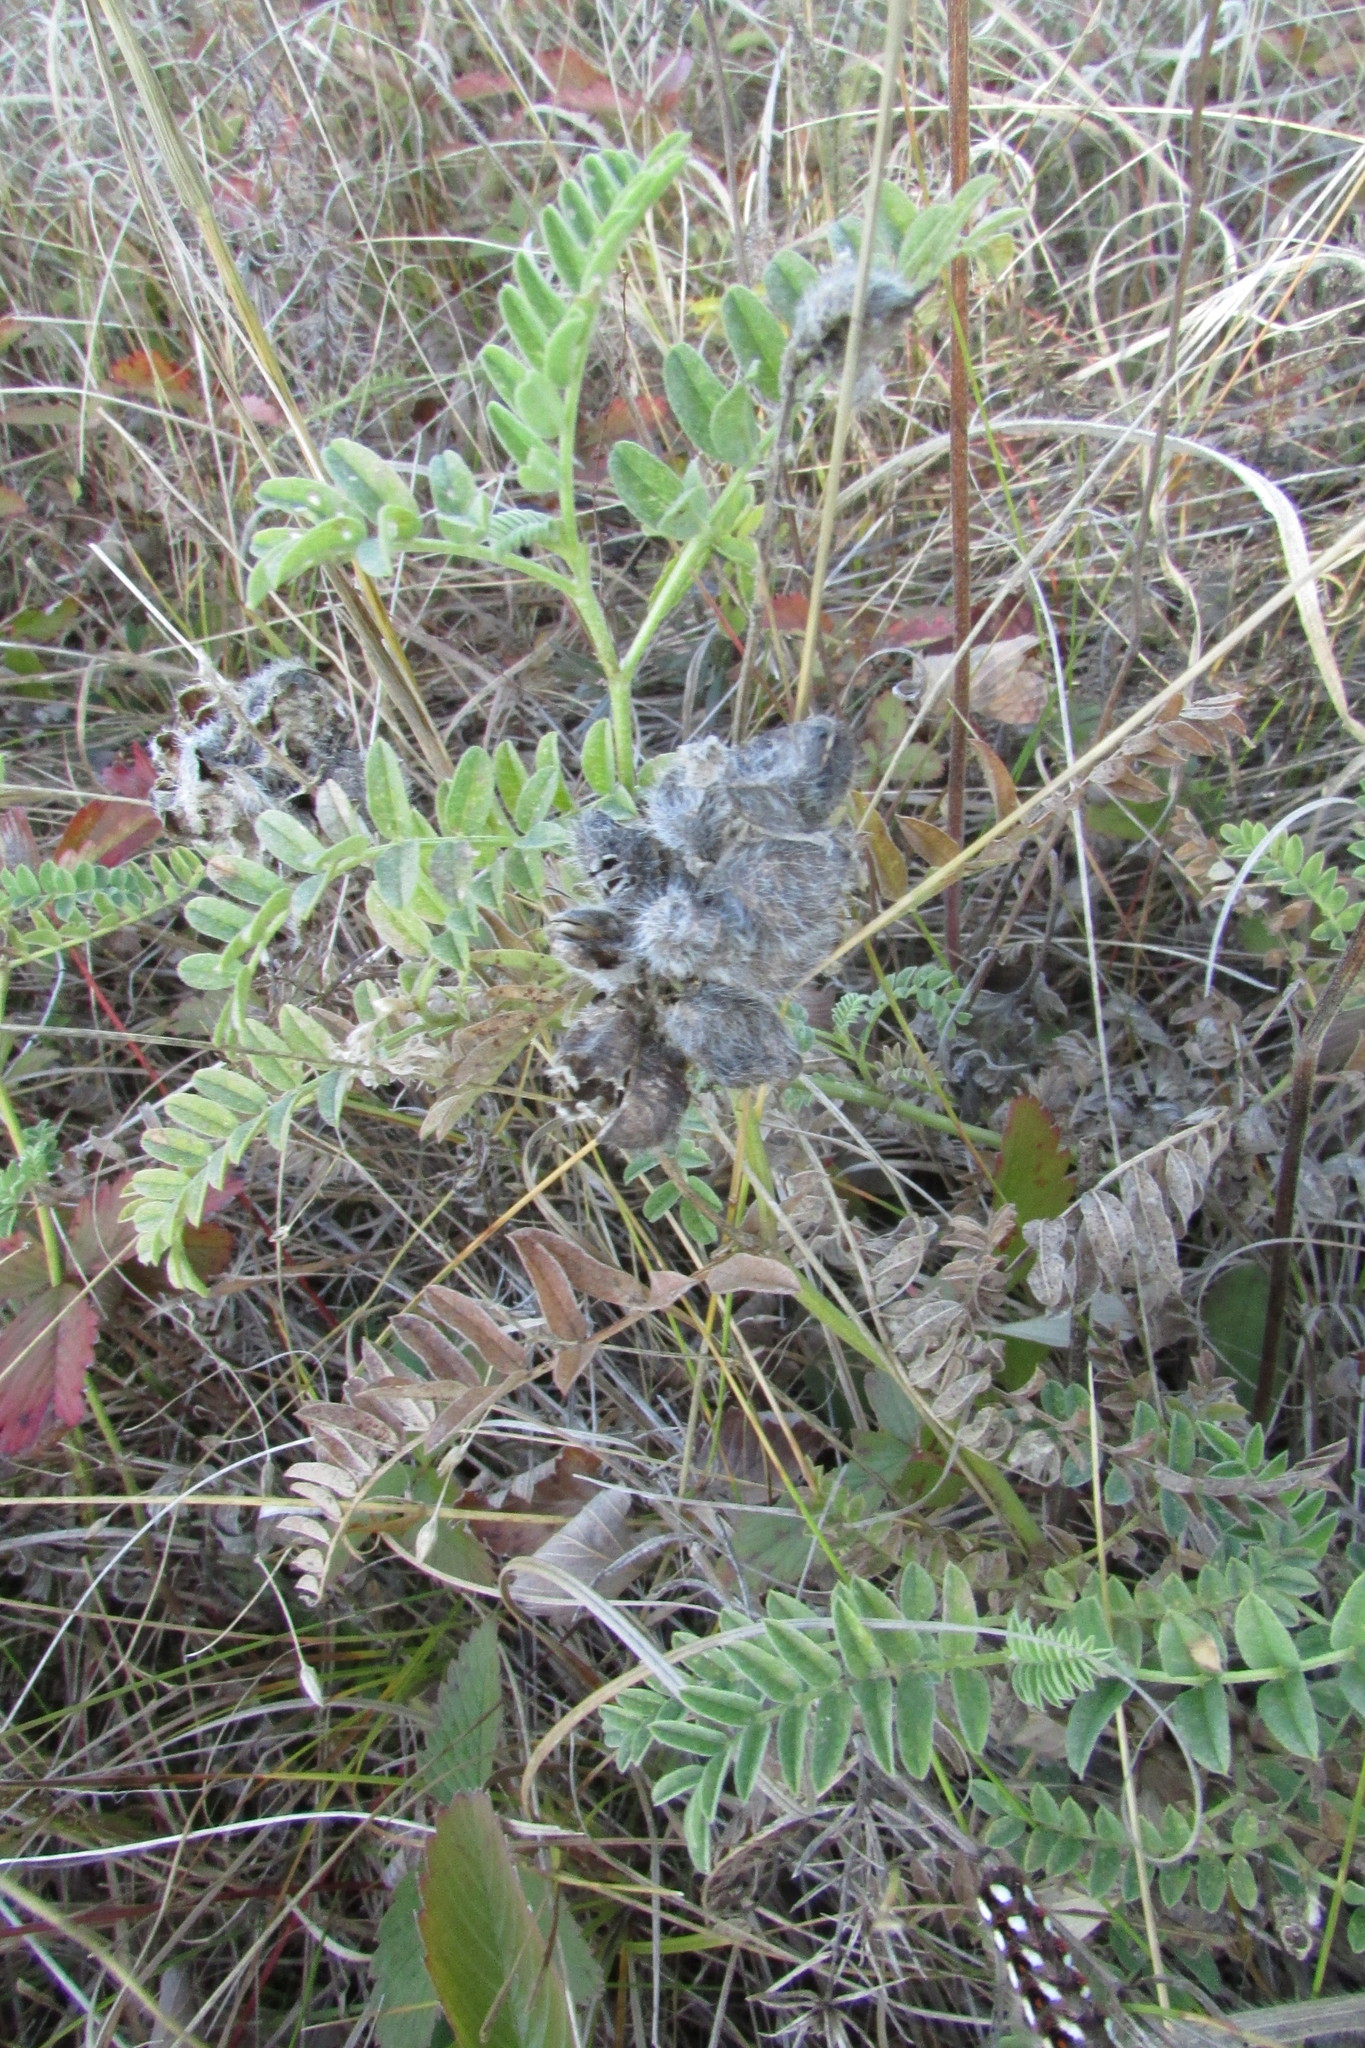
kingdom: Plantae
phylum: Tracheophyta
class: Magnoliopsida
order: Fabales
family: Fabaceae
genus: Astragalus
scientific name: Astragalus cicer
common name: Chick-pea milk-vetch
